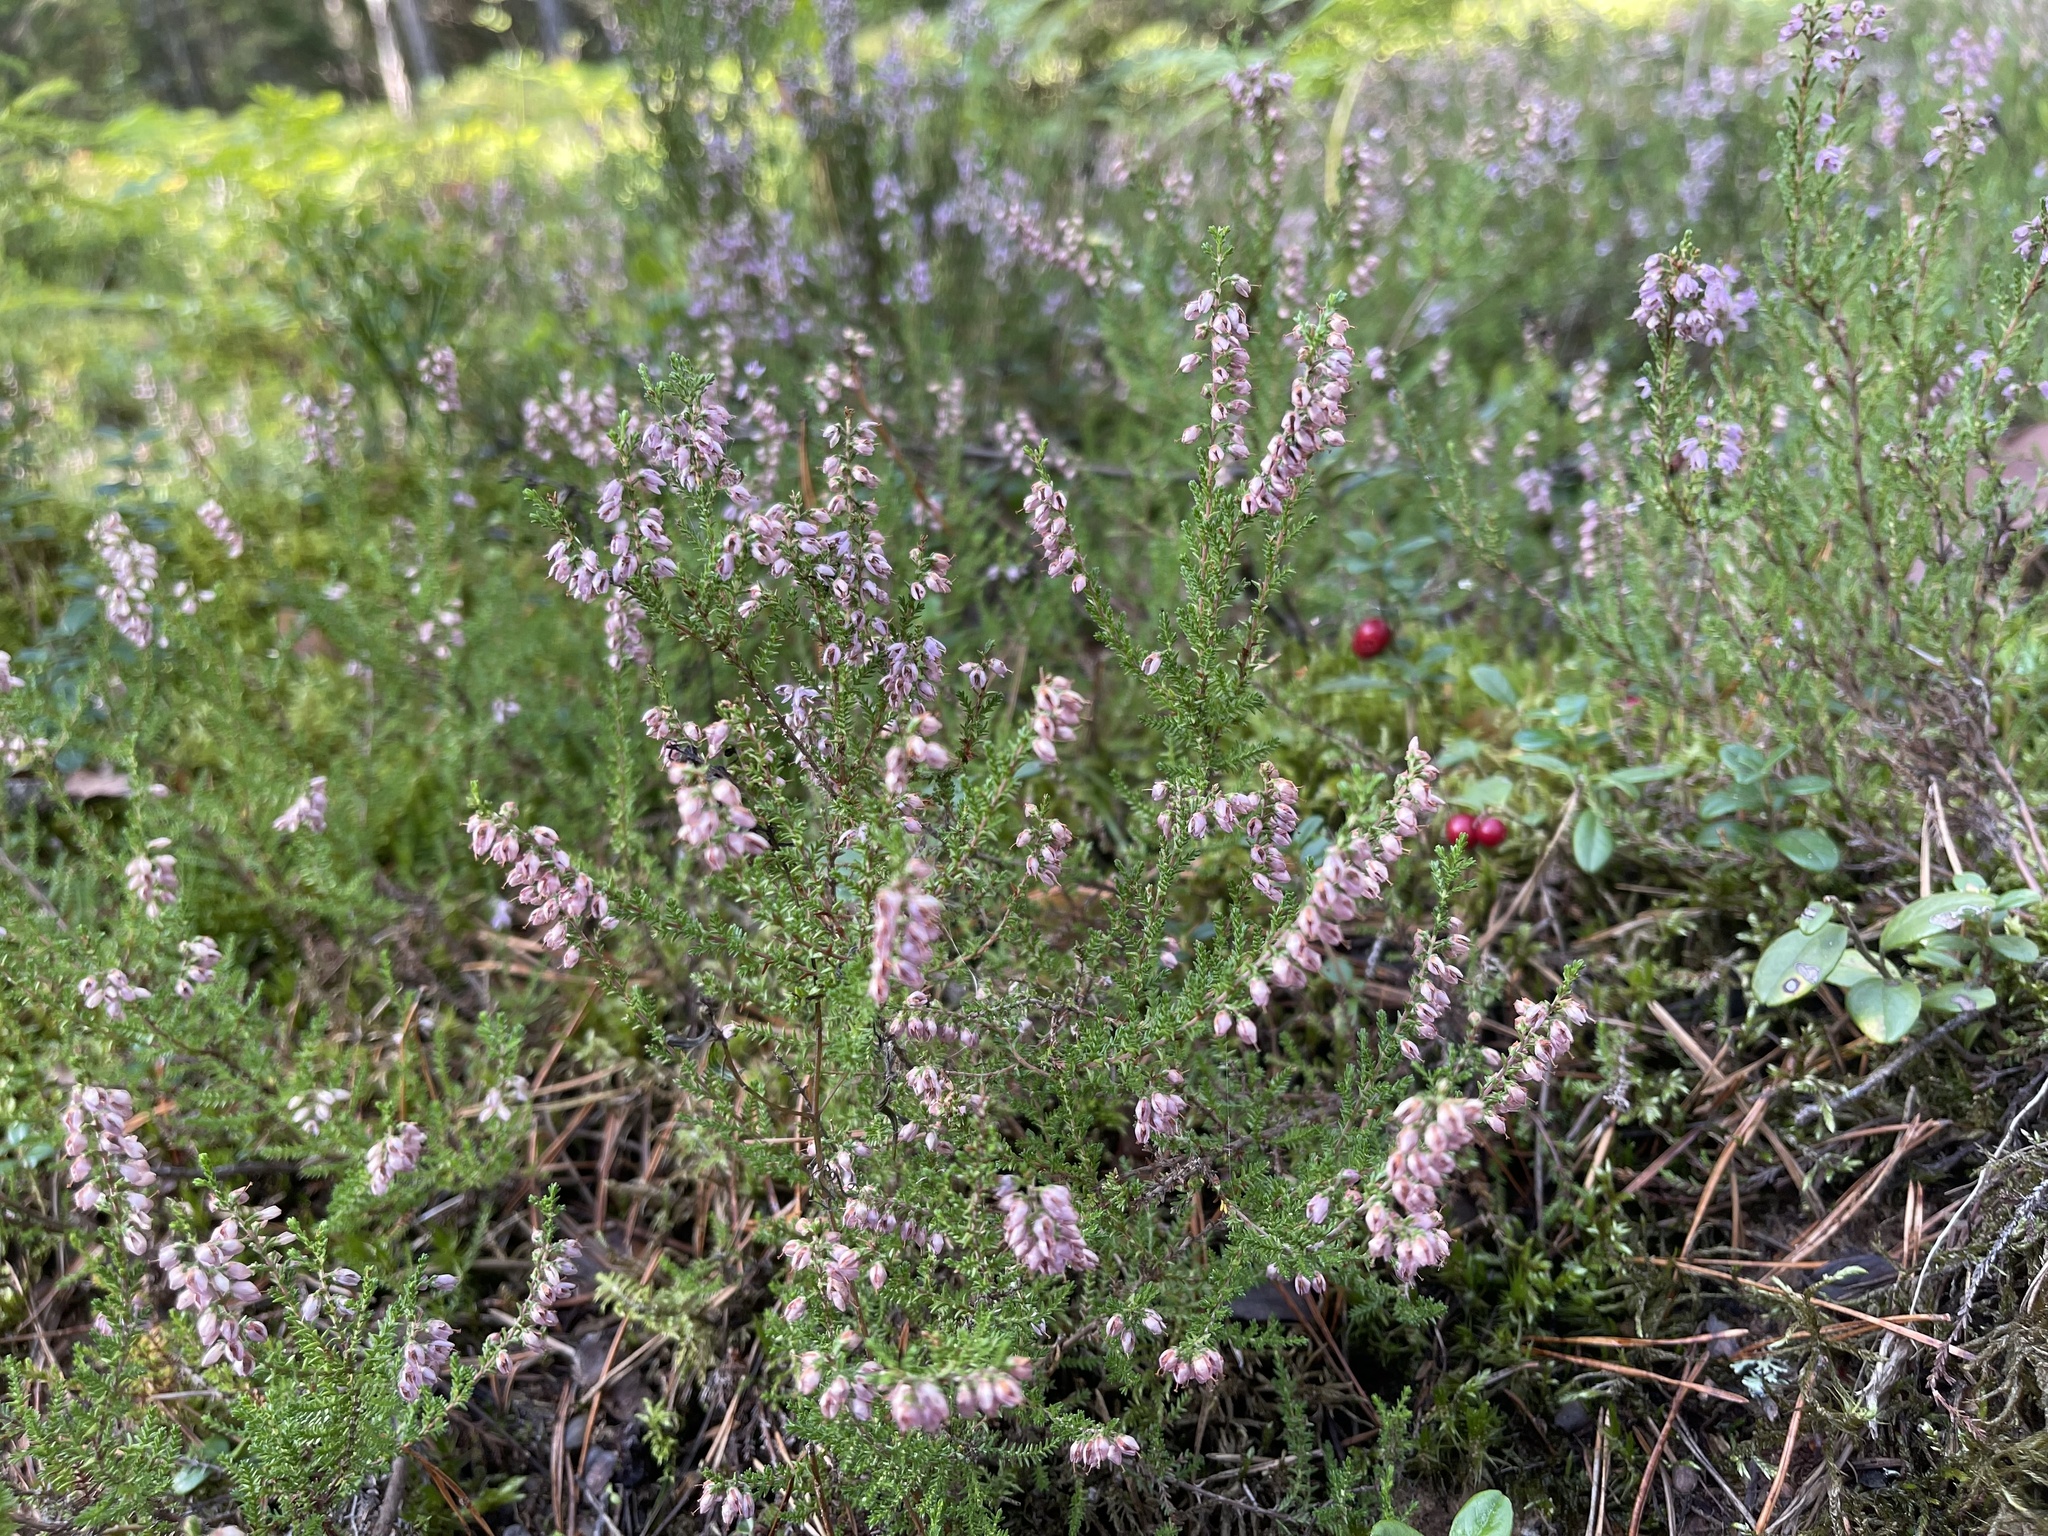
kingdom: Plantae
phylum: Tracheophyta
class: Magnoliopsida
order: Ericales
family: Ericaceae
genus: Calluna
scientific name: Calluna vulgaris
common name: Heather
